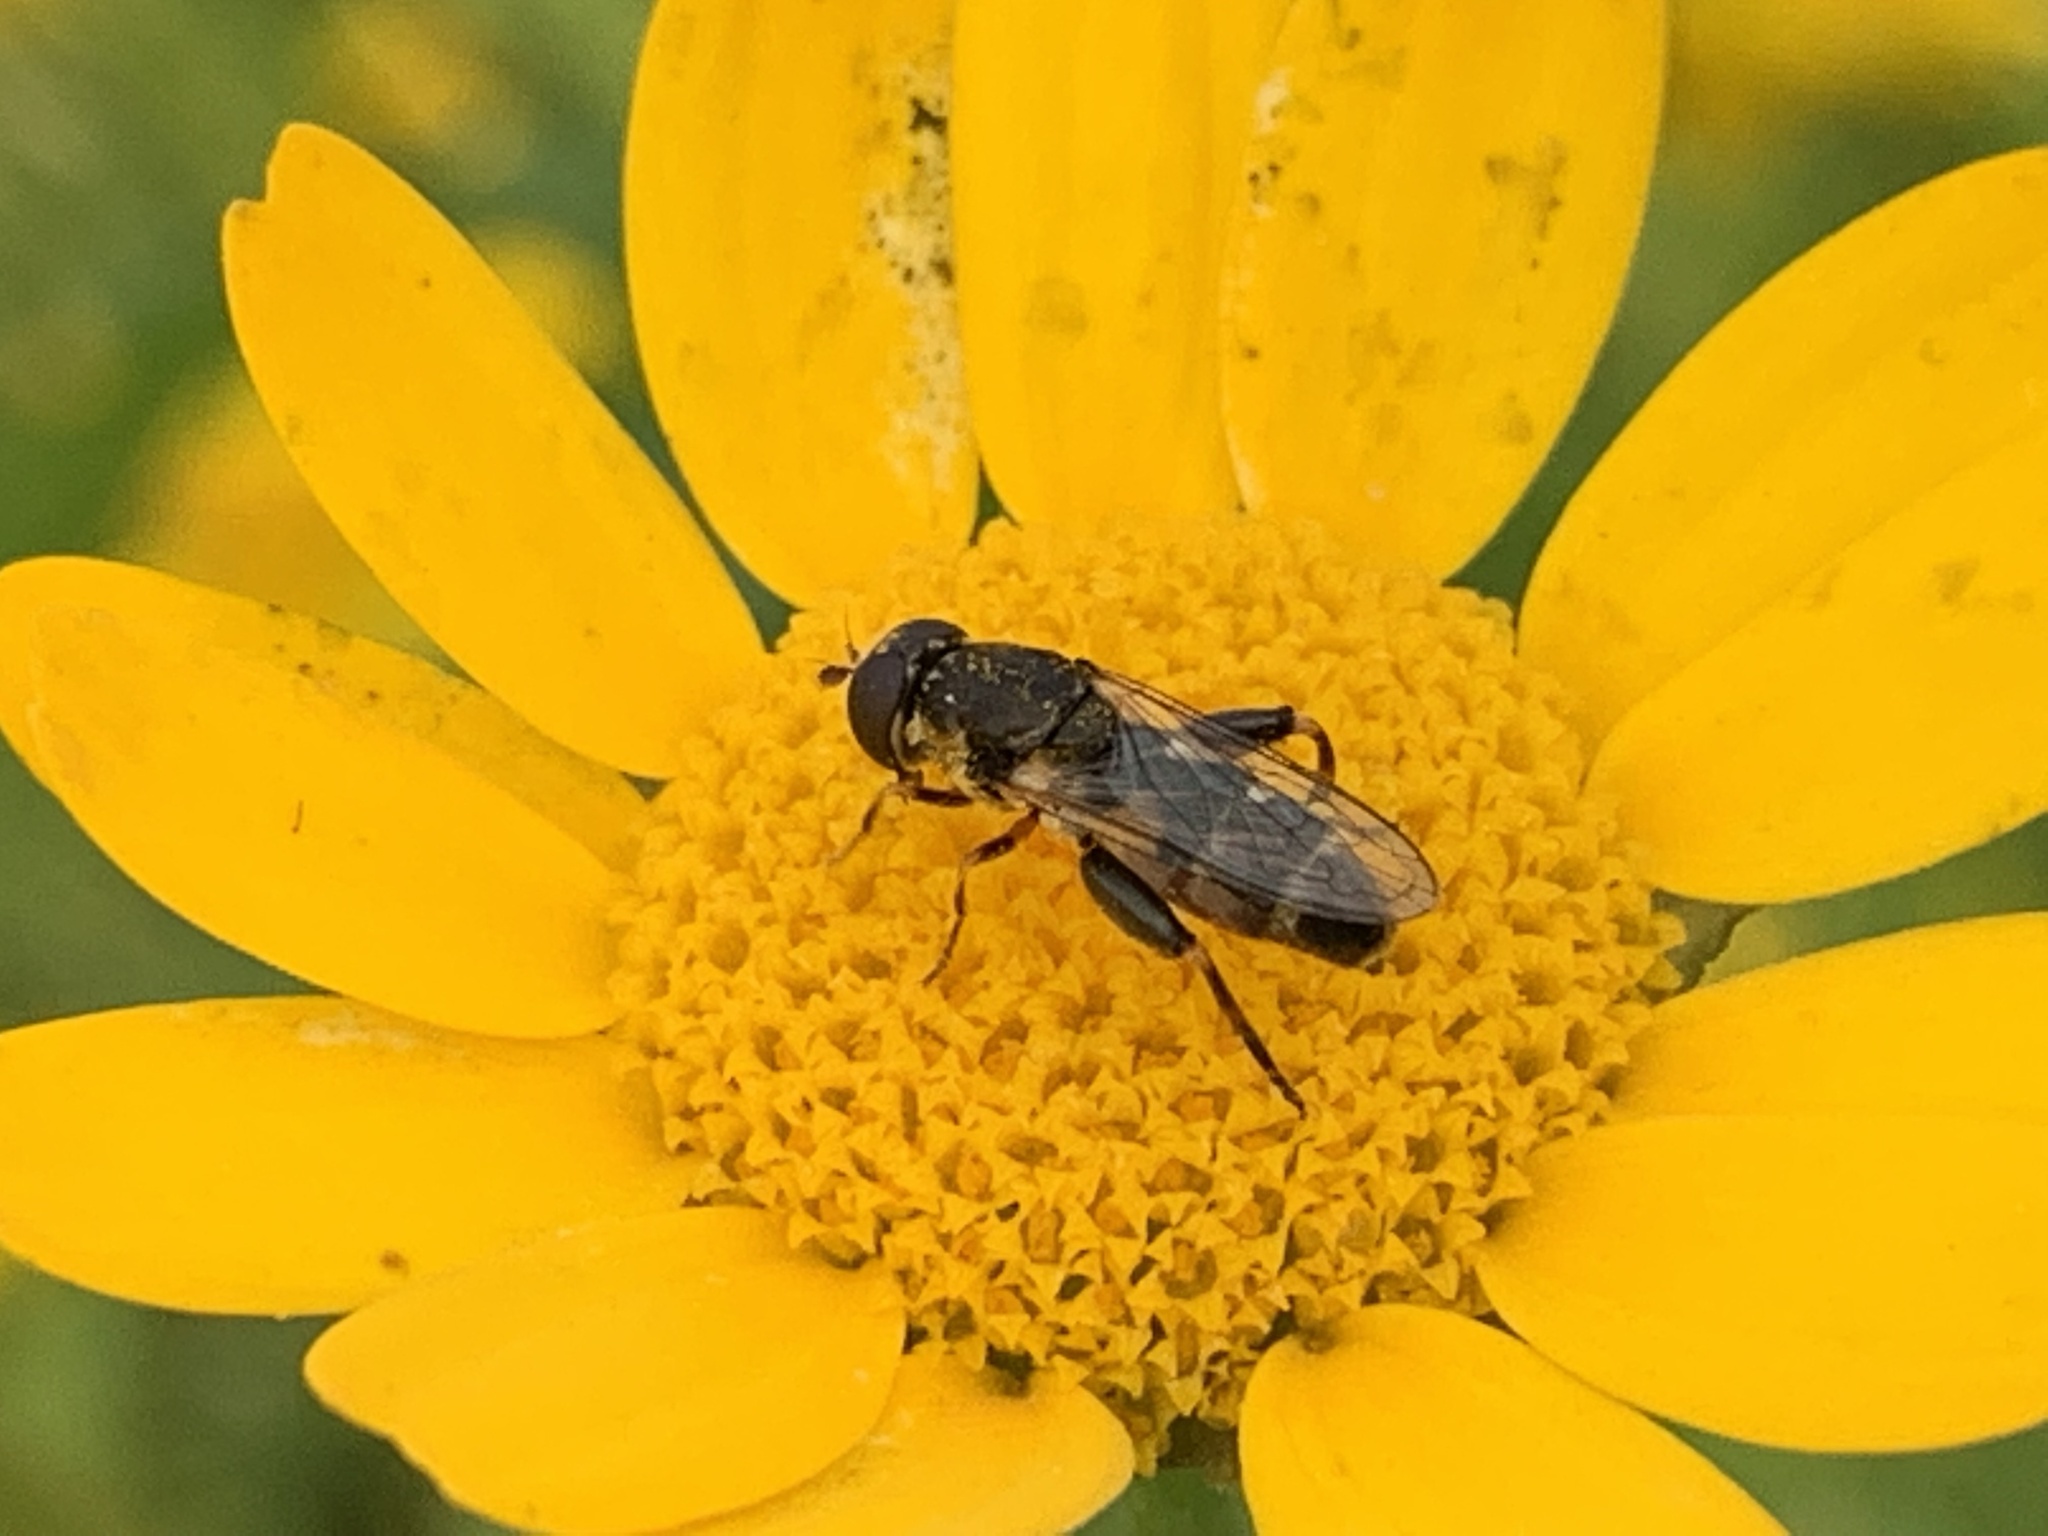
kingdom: Animalia
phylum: Arthropoda
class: Insecta
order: Diptera
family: Syrphidae
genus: Syritta
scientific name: Syritta pipiens
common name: Hover fly
